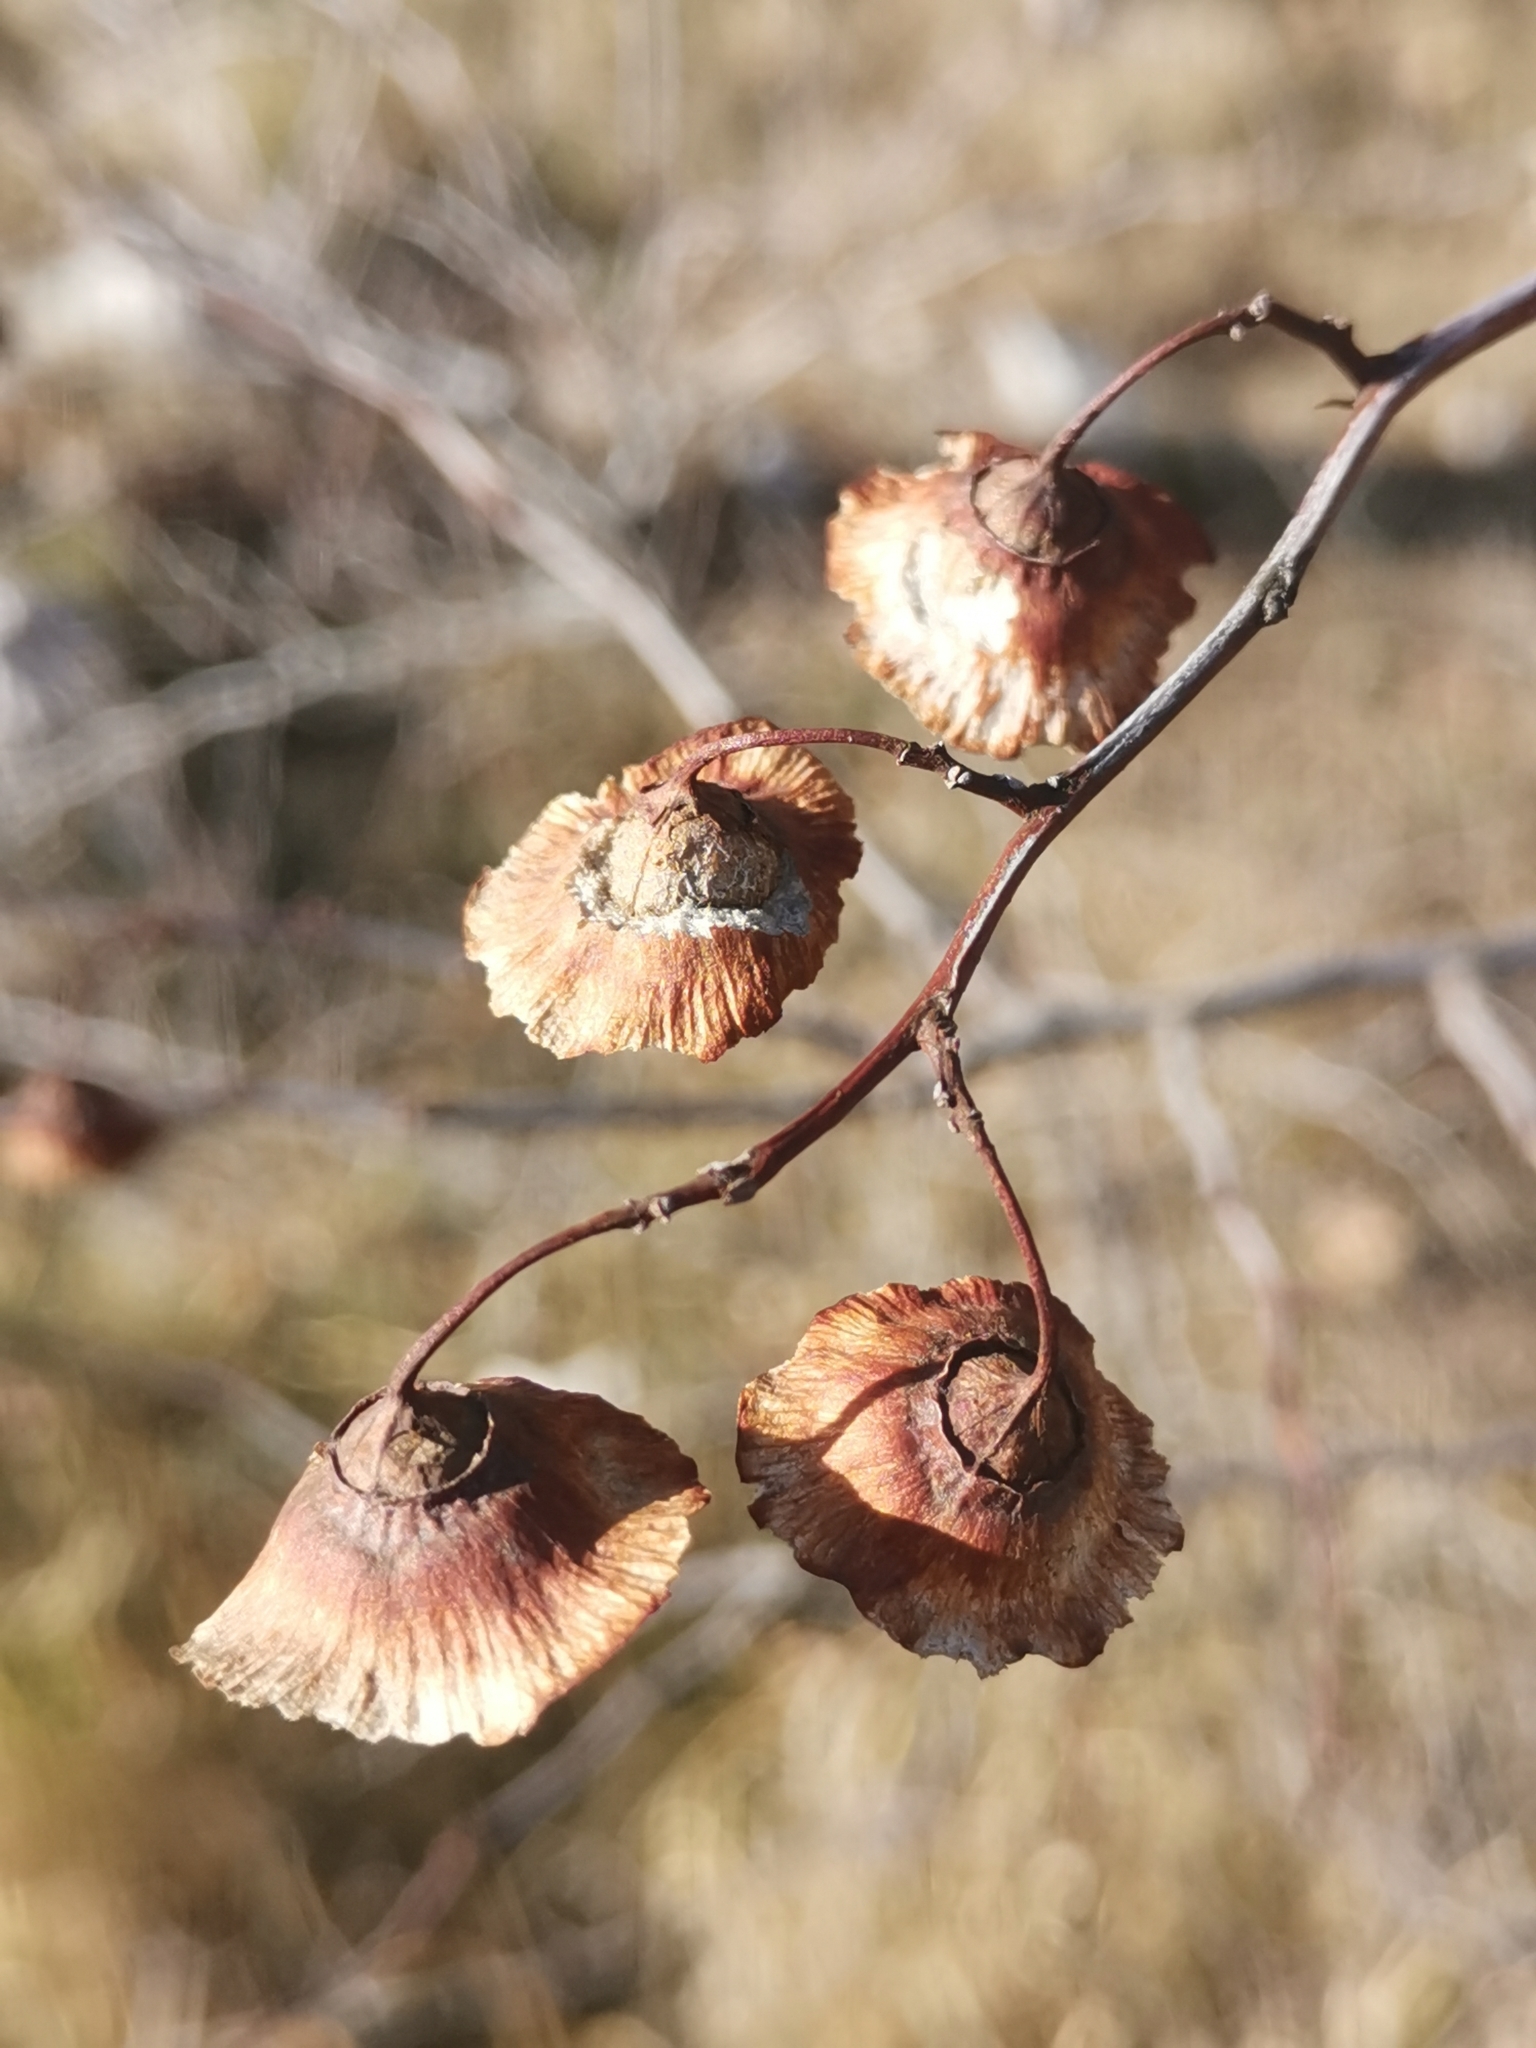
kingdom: Plantae
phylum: Tracheophyta
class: Magnoliopsida
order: Rosales
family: Rhamnaceae
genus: Paliurus
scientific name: Paliurus spina-christi
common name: Jeruselem thorn
